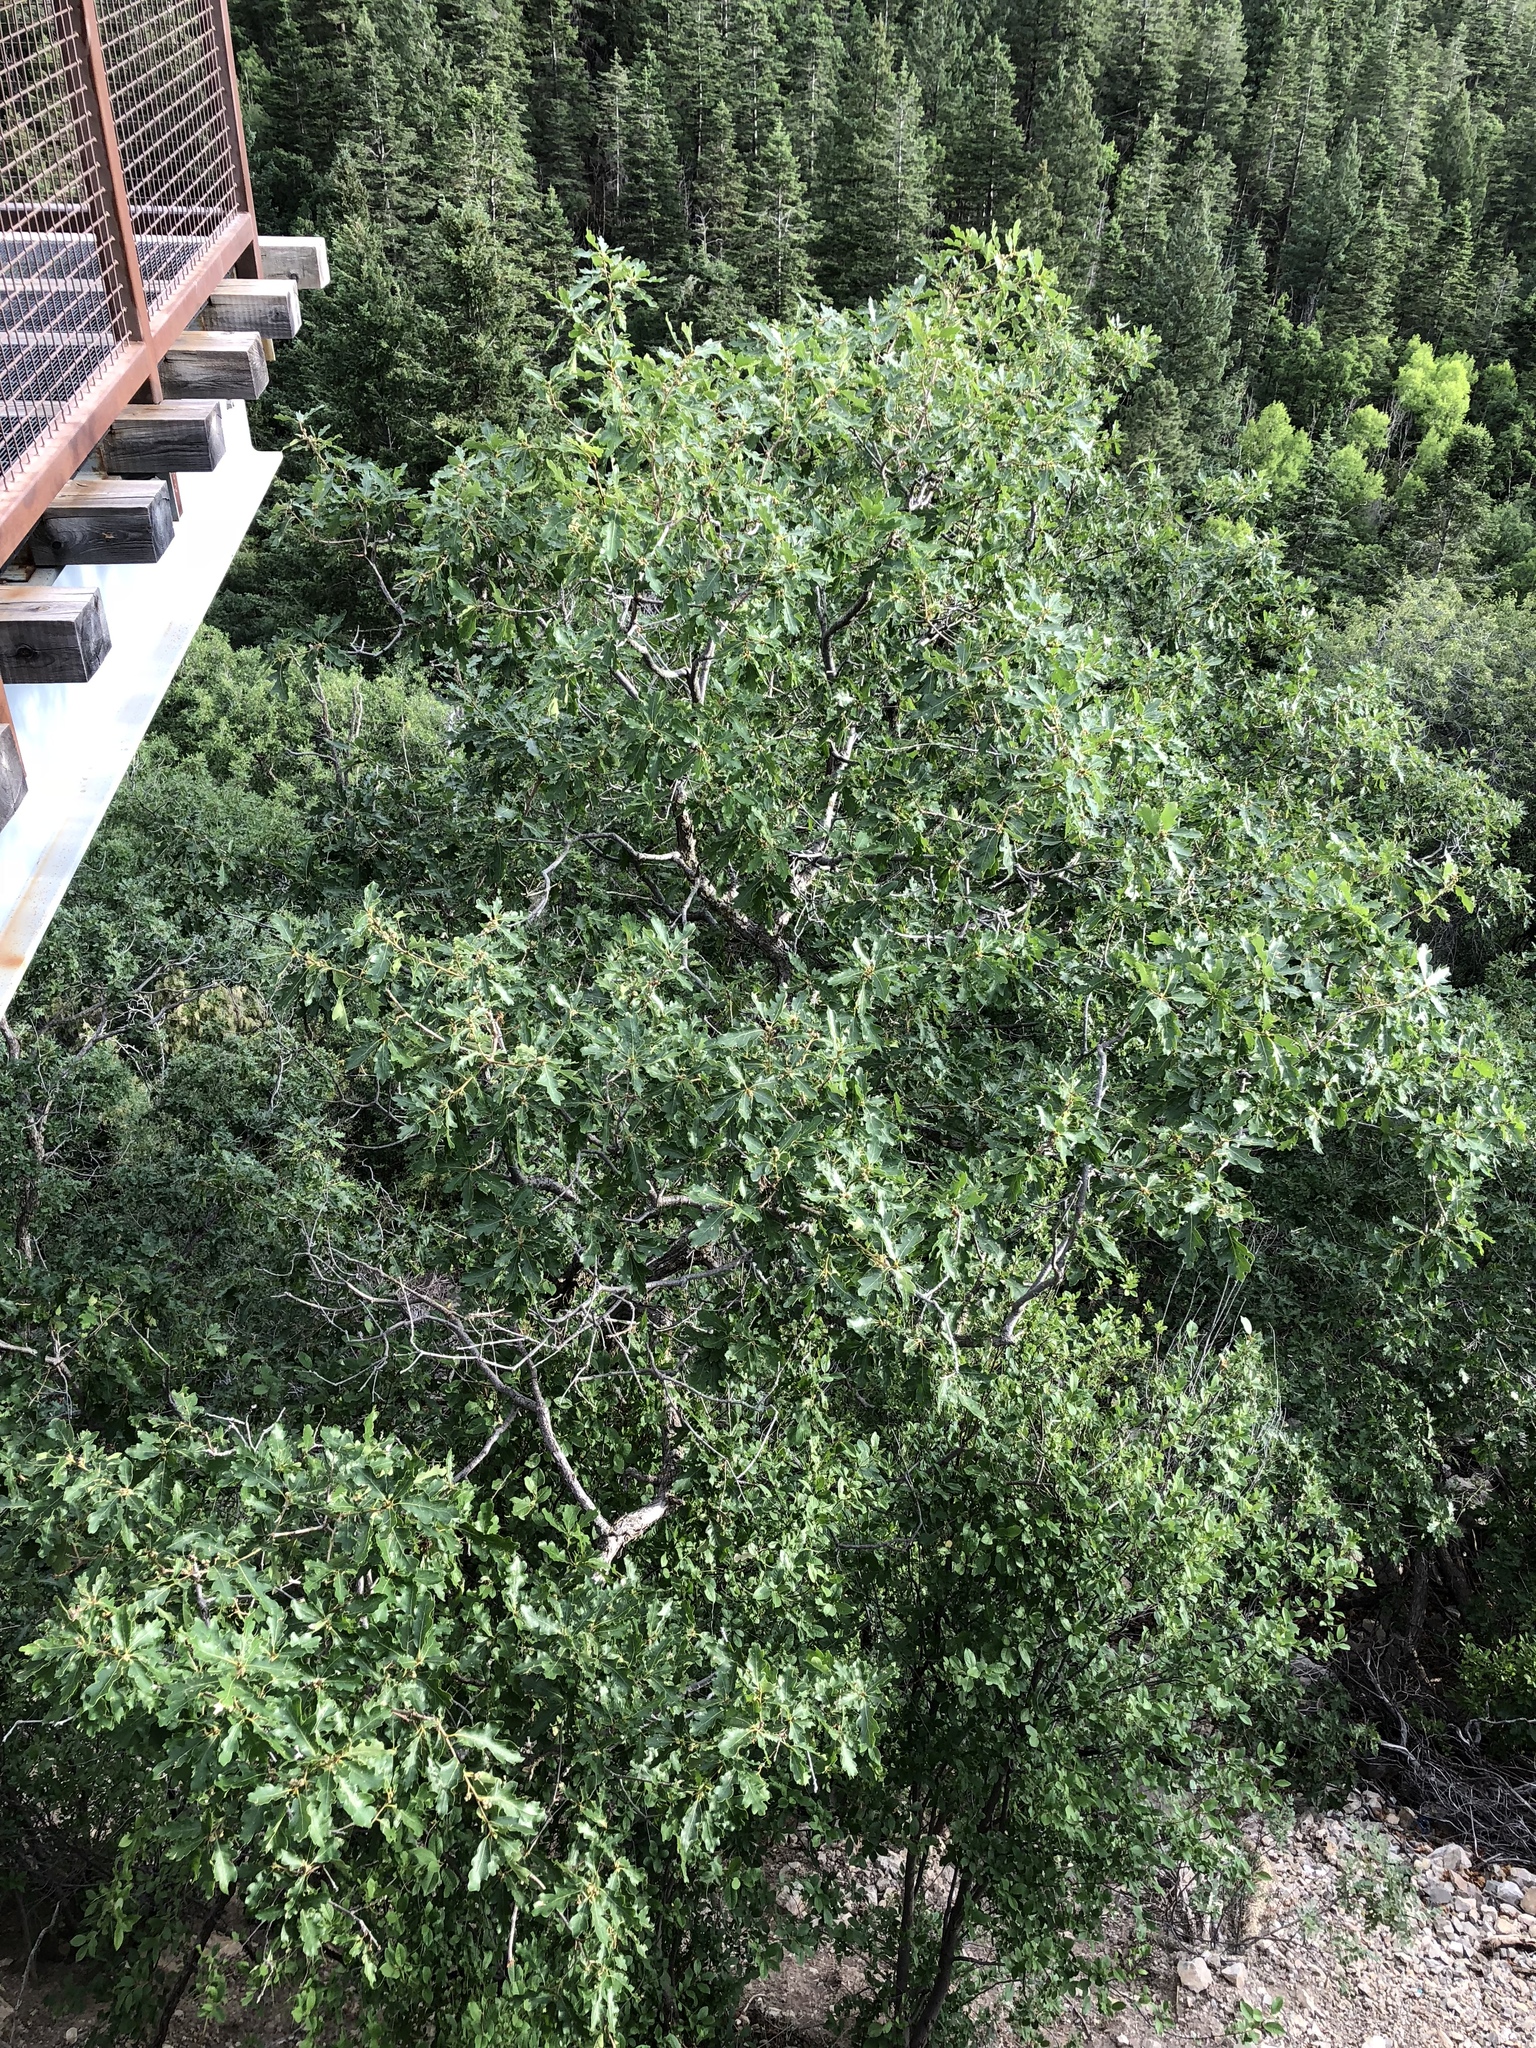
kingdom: Plantae
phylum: Tracheophyta
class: Magnoliopsida
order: Fagales
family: Fagaceae
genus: Quercus
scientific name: Quercus gambelii
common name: Gambel oak
